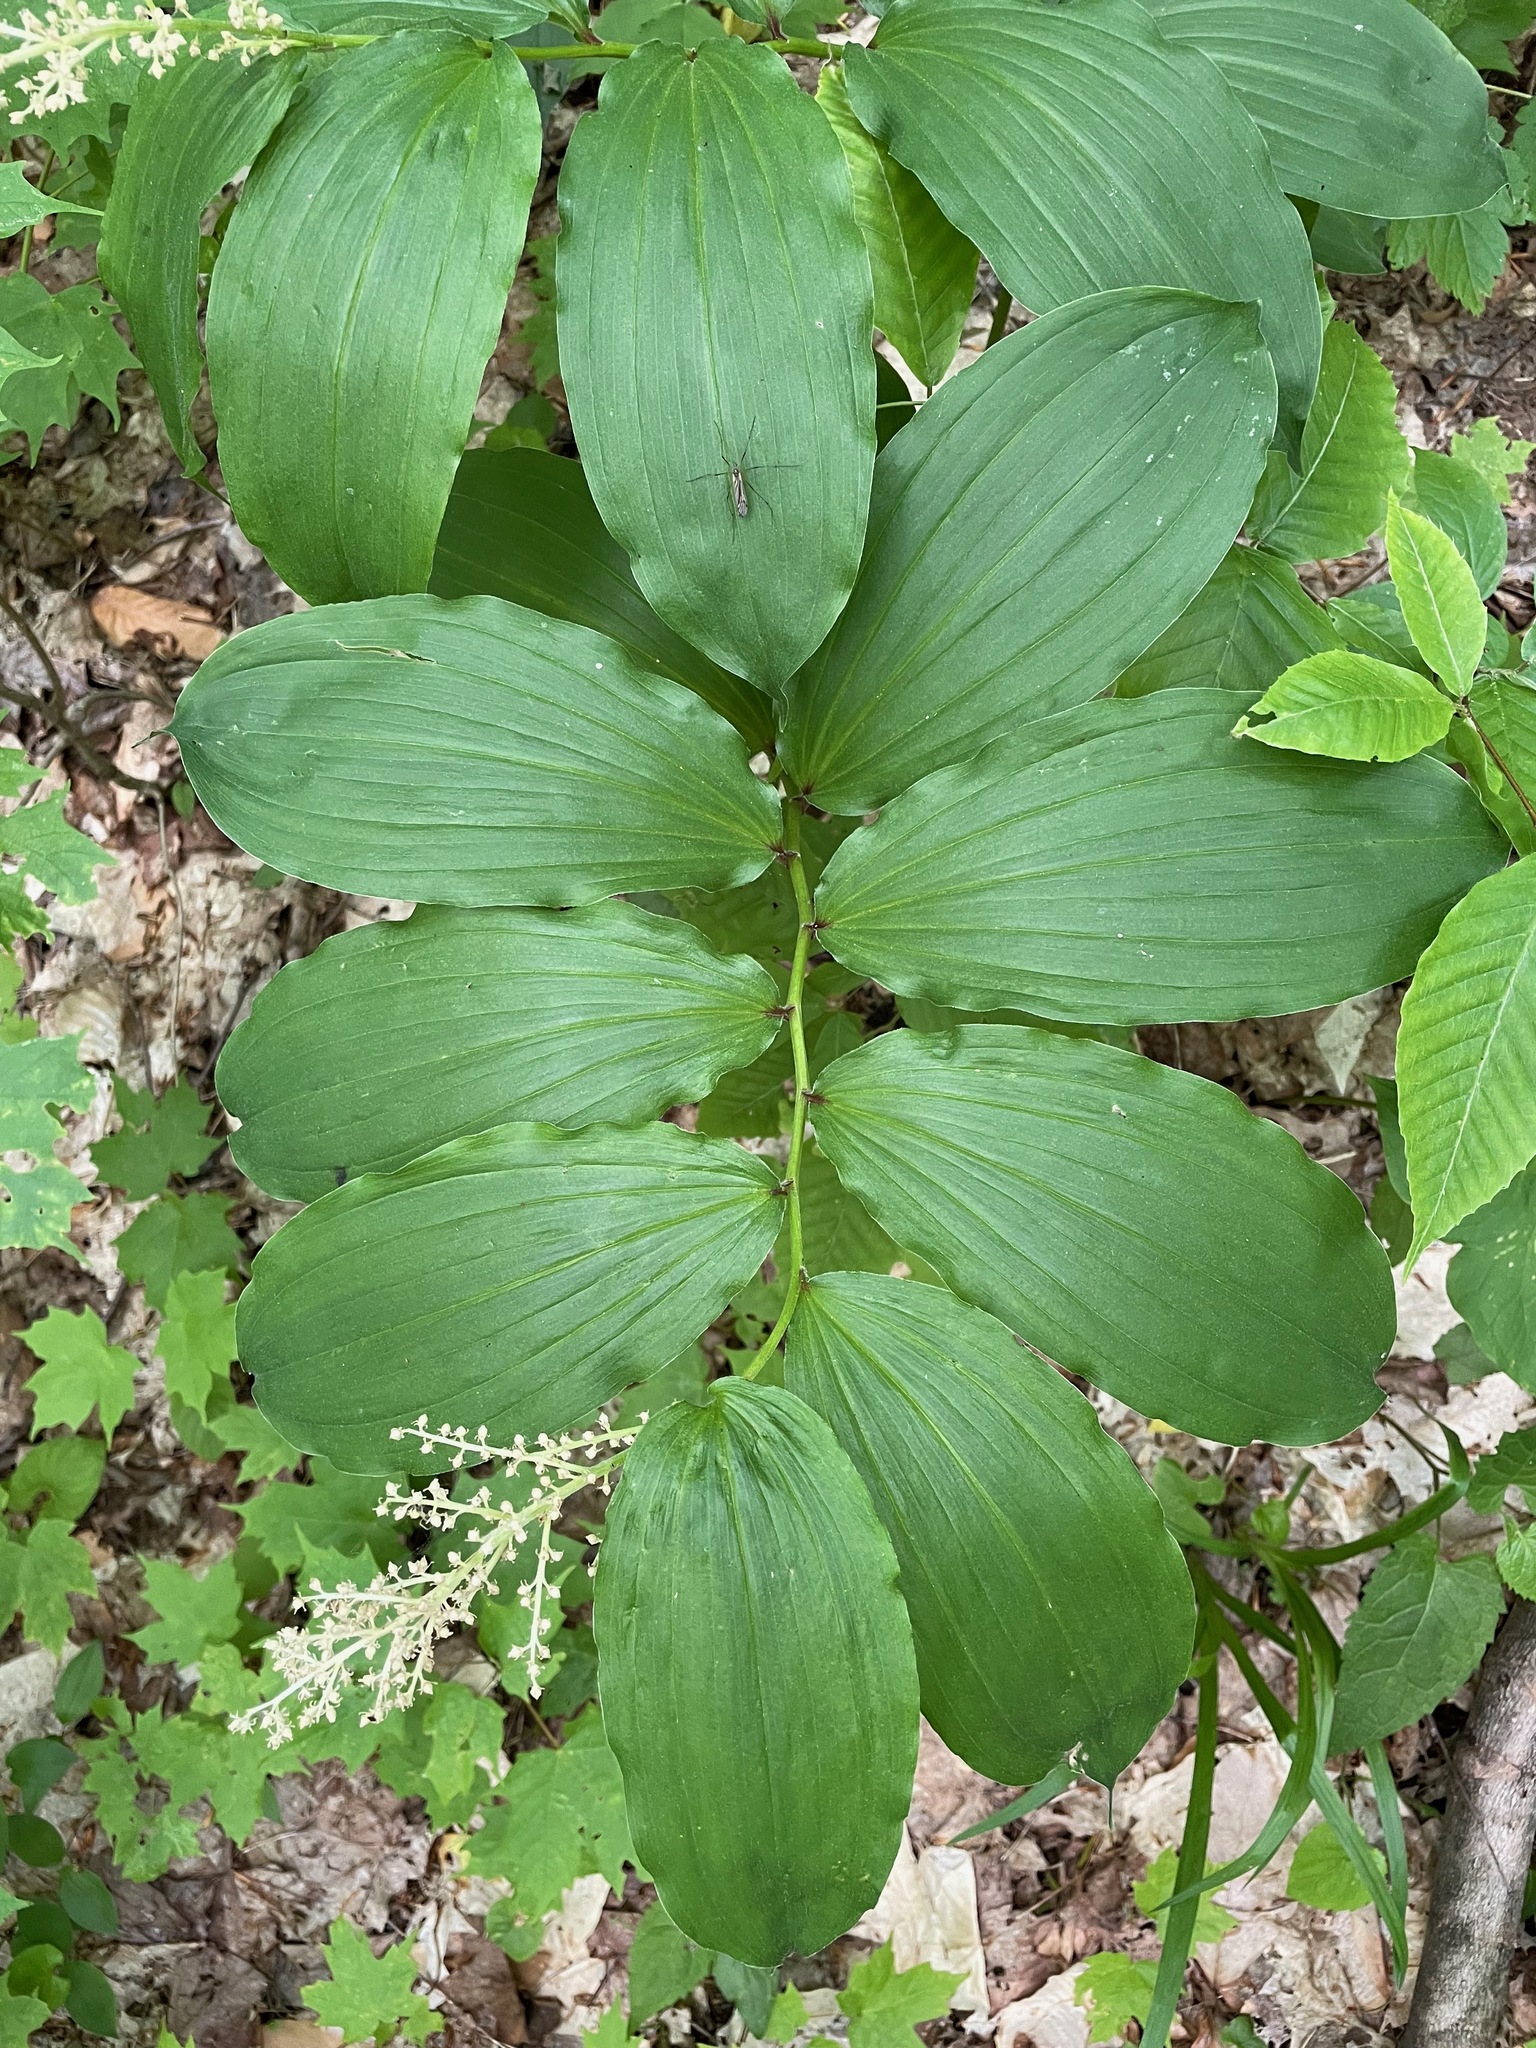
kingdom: Plantae
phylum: Tracheophyta
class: Liliopsida
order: Asparagales
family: Asparagaceae
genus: Maianthemum
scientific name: Maianthemum racemosum
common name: False spikenard
